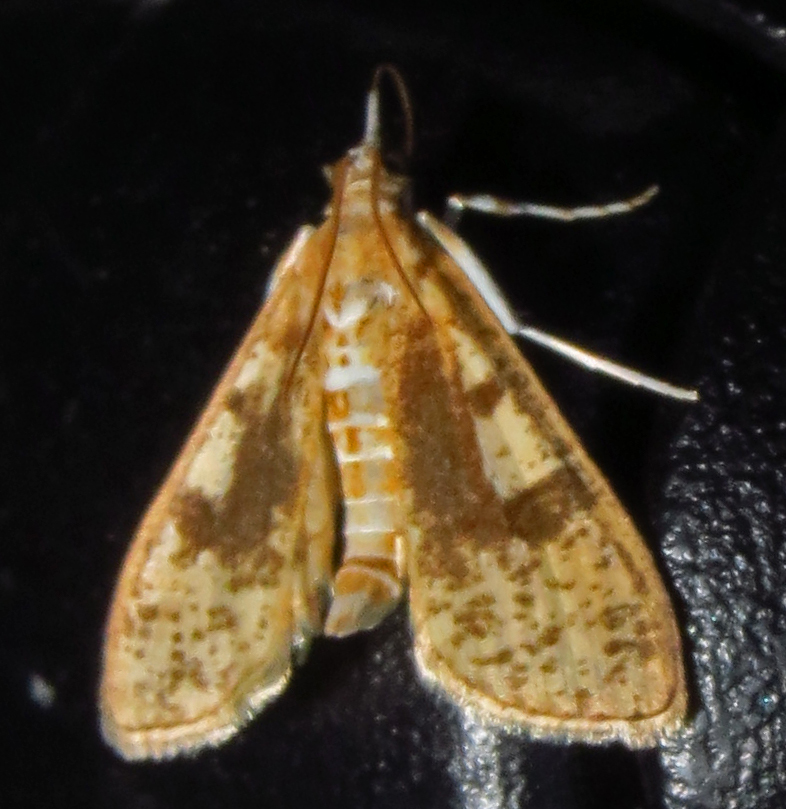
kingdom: Animalia
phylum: Arthropoda
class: Insecta
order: Lepidoptera
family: Crambidae
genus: Palpita
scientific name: Palpita magniferalis
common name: Splendid palpita moth
